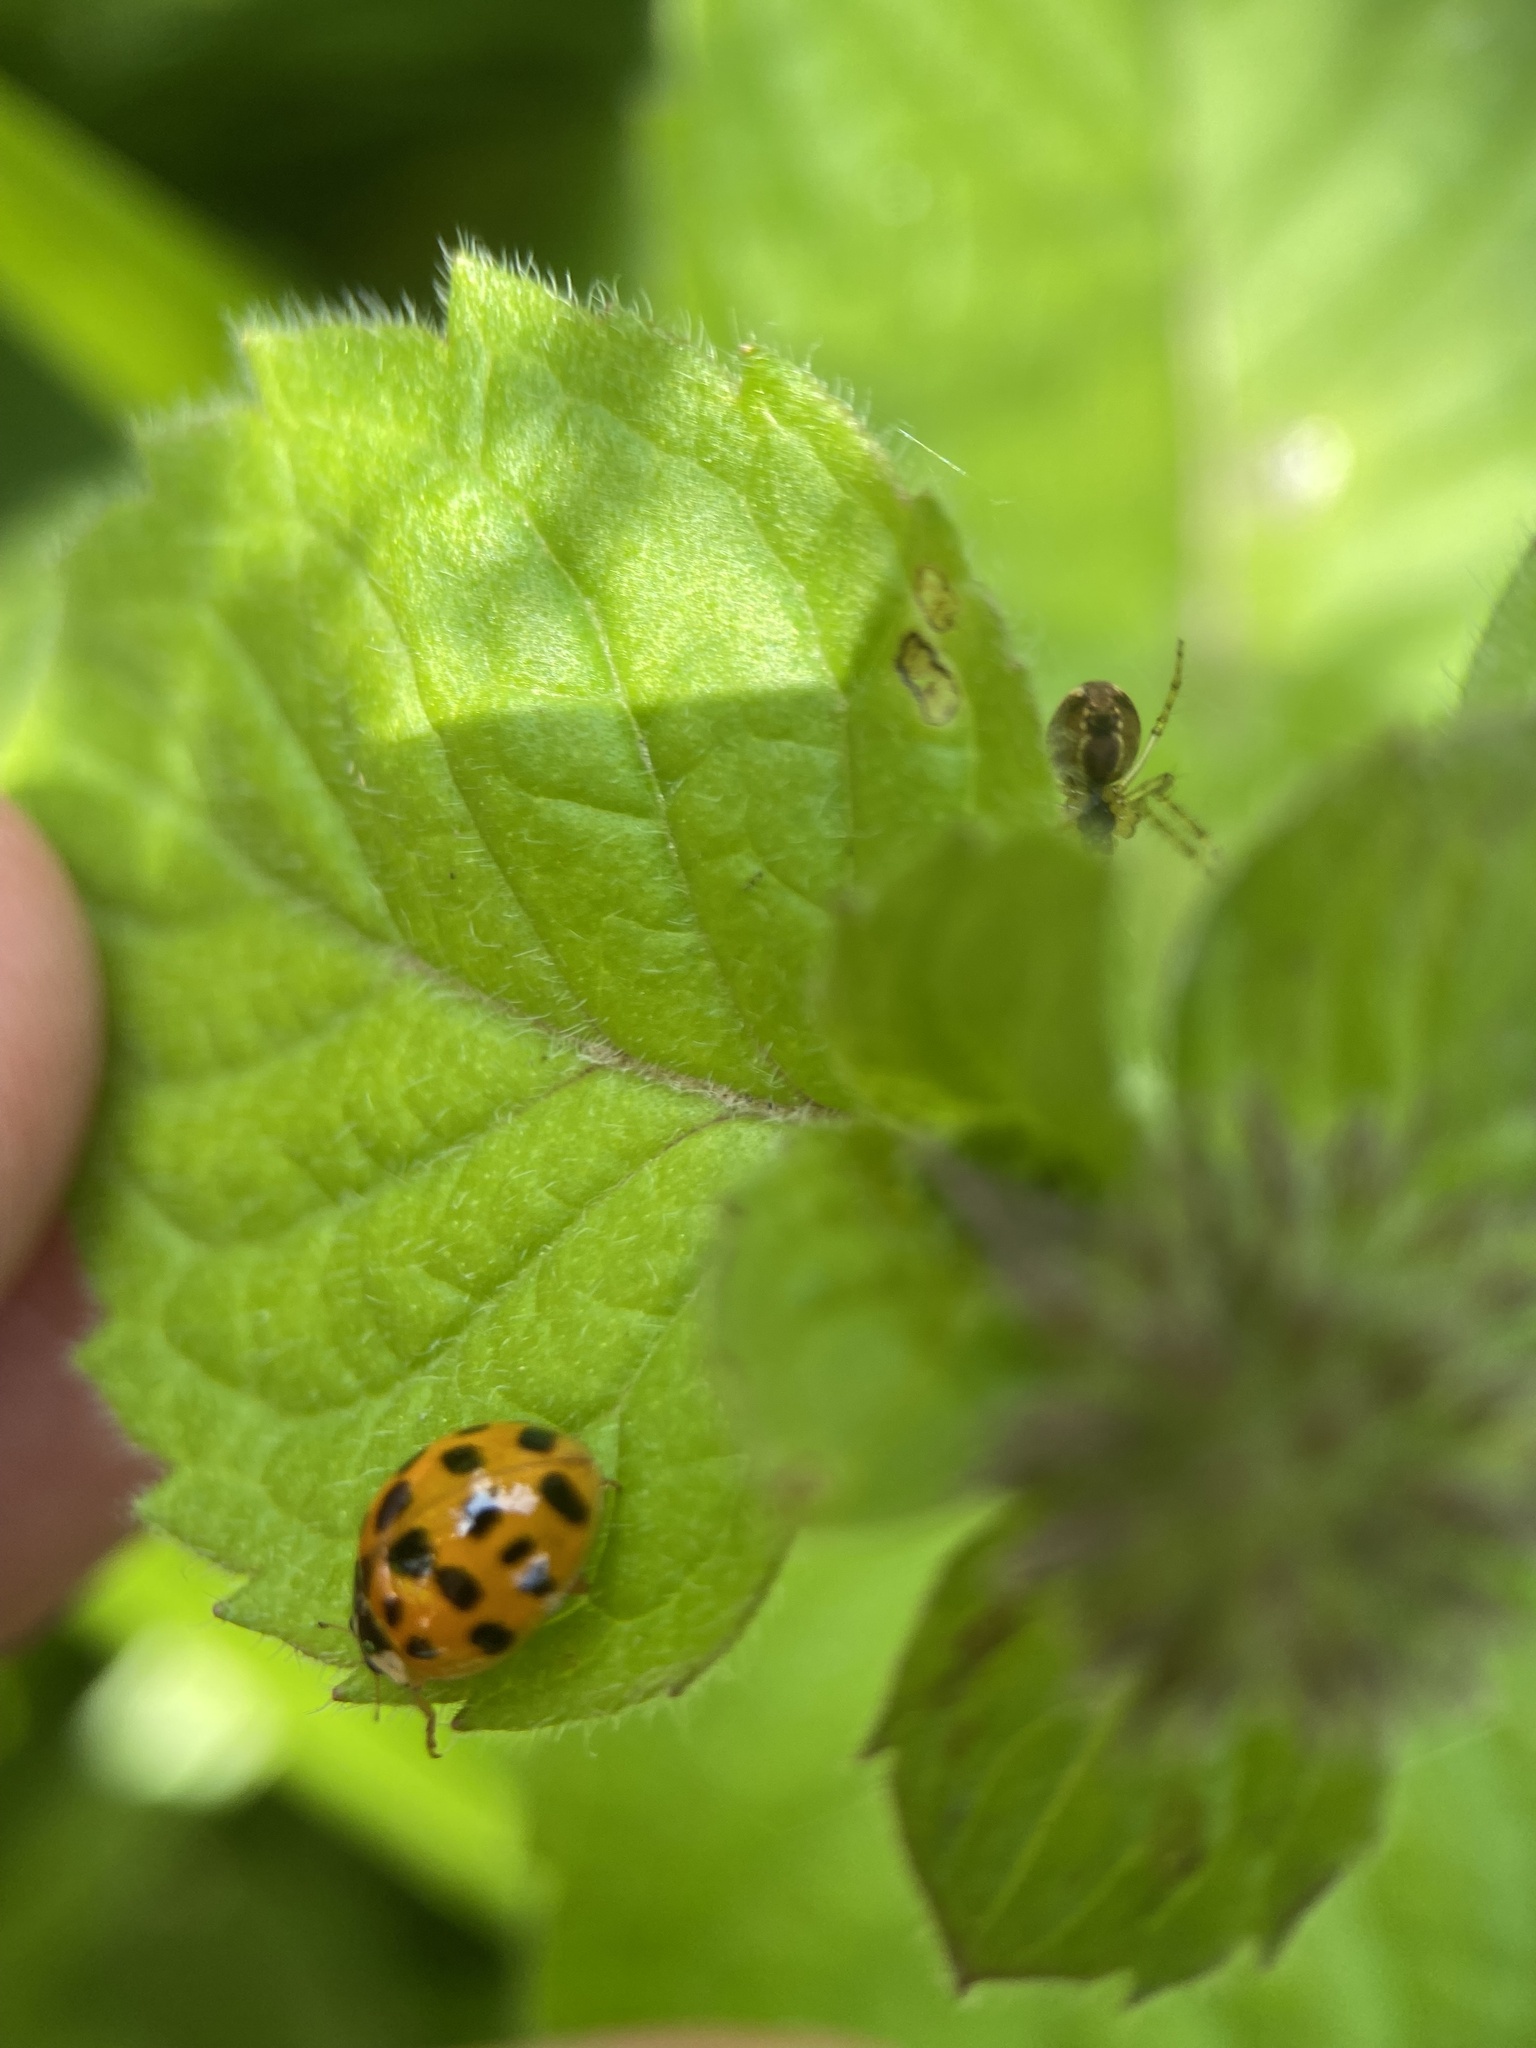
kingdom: Animalia
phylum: Arthropoda
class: Insecta
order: Coleoptera
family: Coccinellidae
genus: Harmonia
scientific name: Harmonia axyridis
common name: Harlequin ladybird
